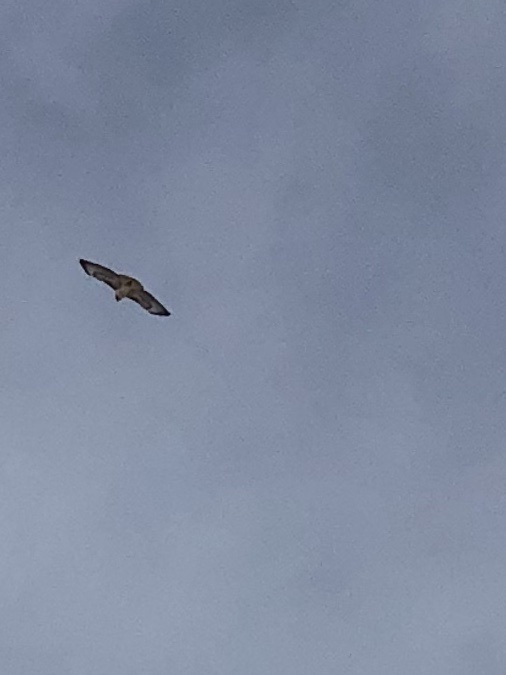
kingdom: Animalia
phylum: Chordata
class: Aves
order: Accipitriformes
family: Accipitridae
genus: Buteo
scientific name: Buteo jamaicensis
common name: Red-tailed hawk
